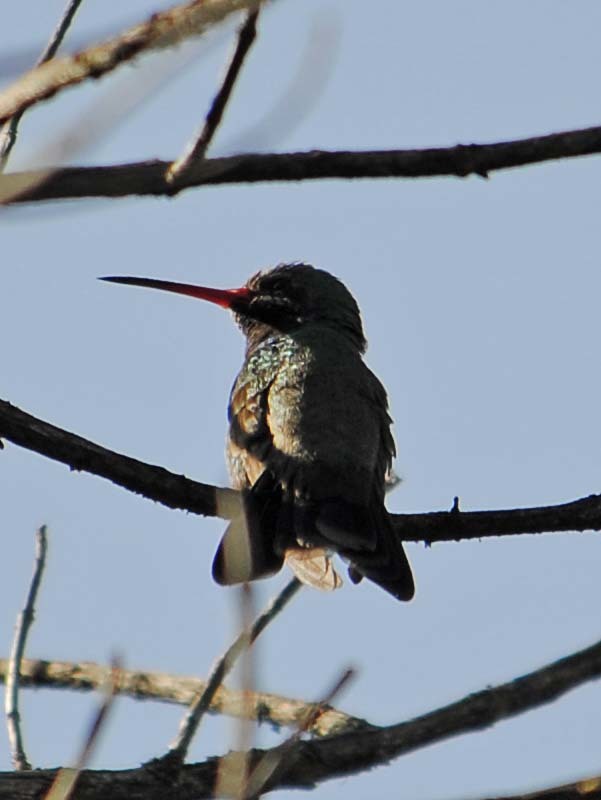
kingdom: Animalia
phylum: Chordata
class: Aves
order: Apodiformes
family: Trochilidae
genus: Cynanthus
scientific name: Cynanthus latirostris
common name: Broad-billed hummingbird
